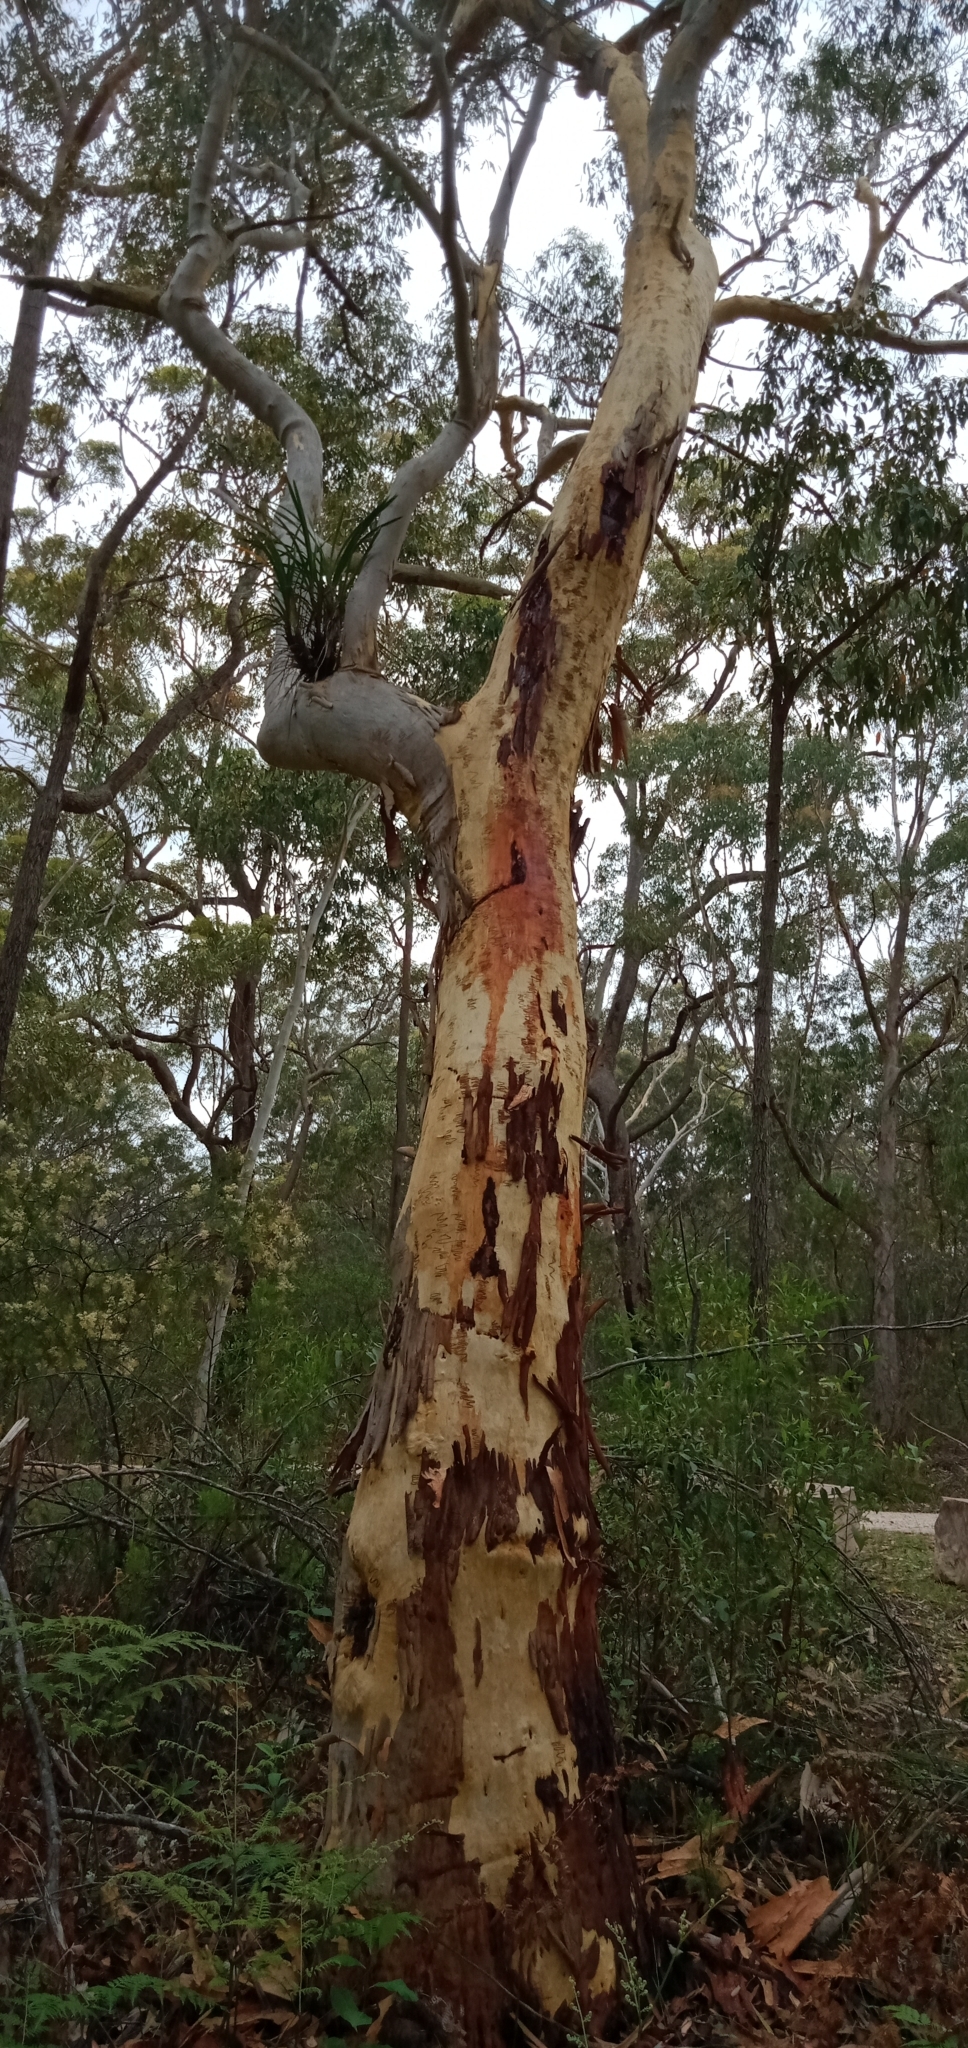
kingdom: Plantae
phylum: Tracheophyta
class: Liliopsida
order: Asparagales
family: Orchidaceae
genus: Cymbidium
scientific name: Cymbidium suave
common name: Snake orchid
